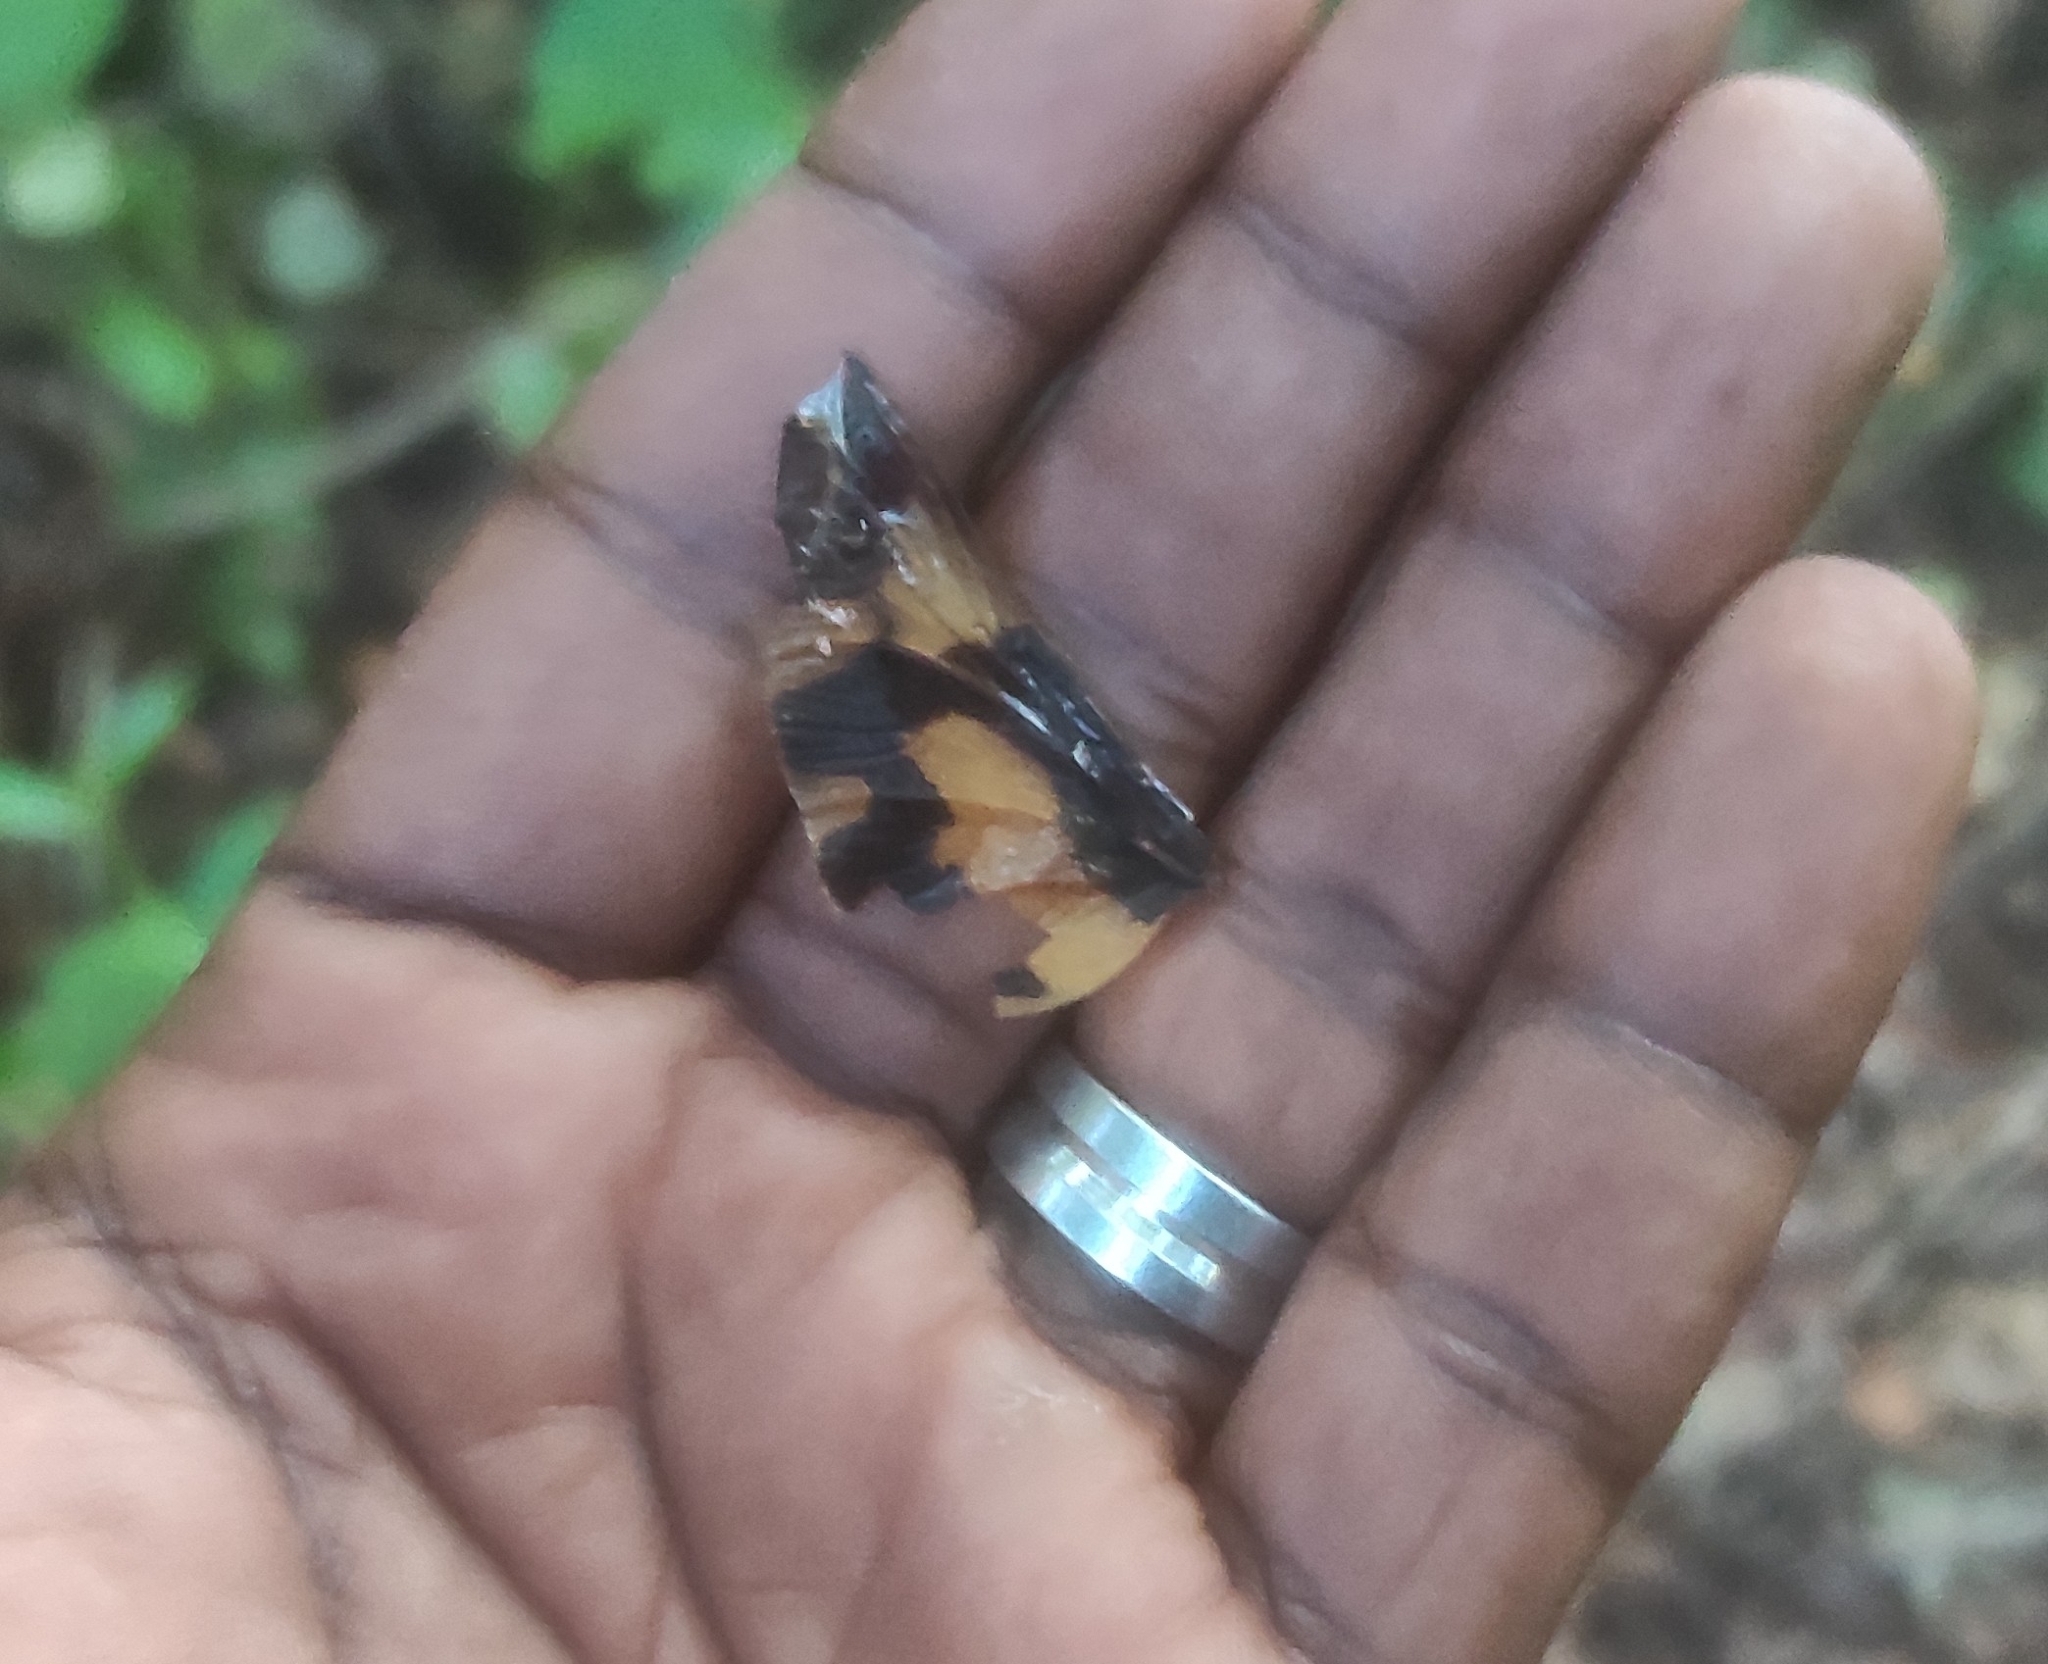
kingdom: Animalia
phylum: Arthropoda
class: Insecta
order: Odonata
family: Libellulidae
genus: Rhyothemis
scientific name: Rhyothemis variegata
